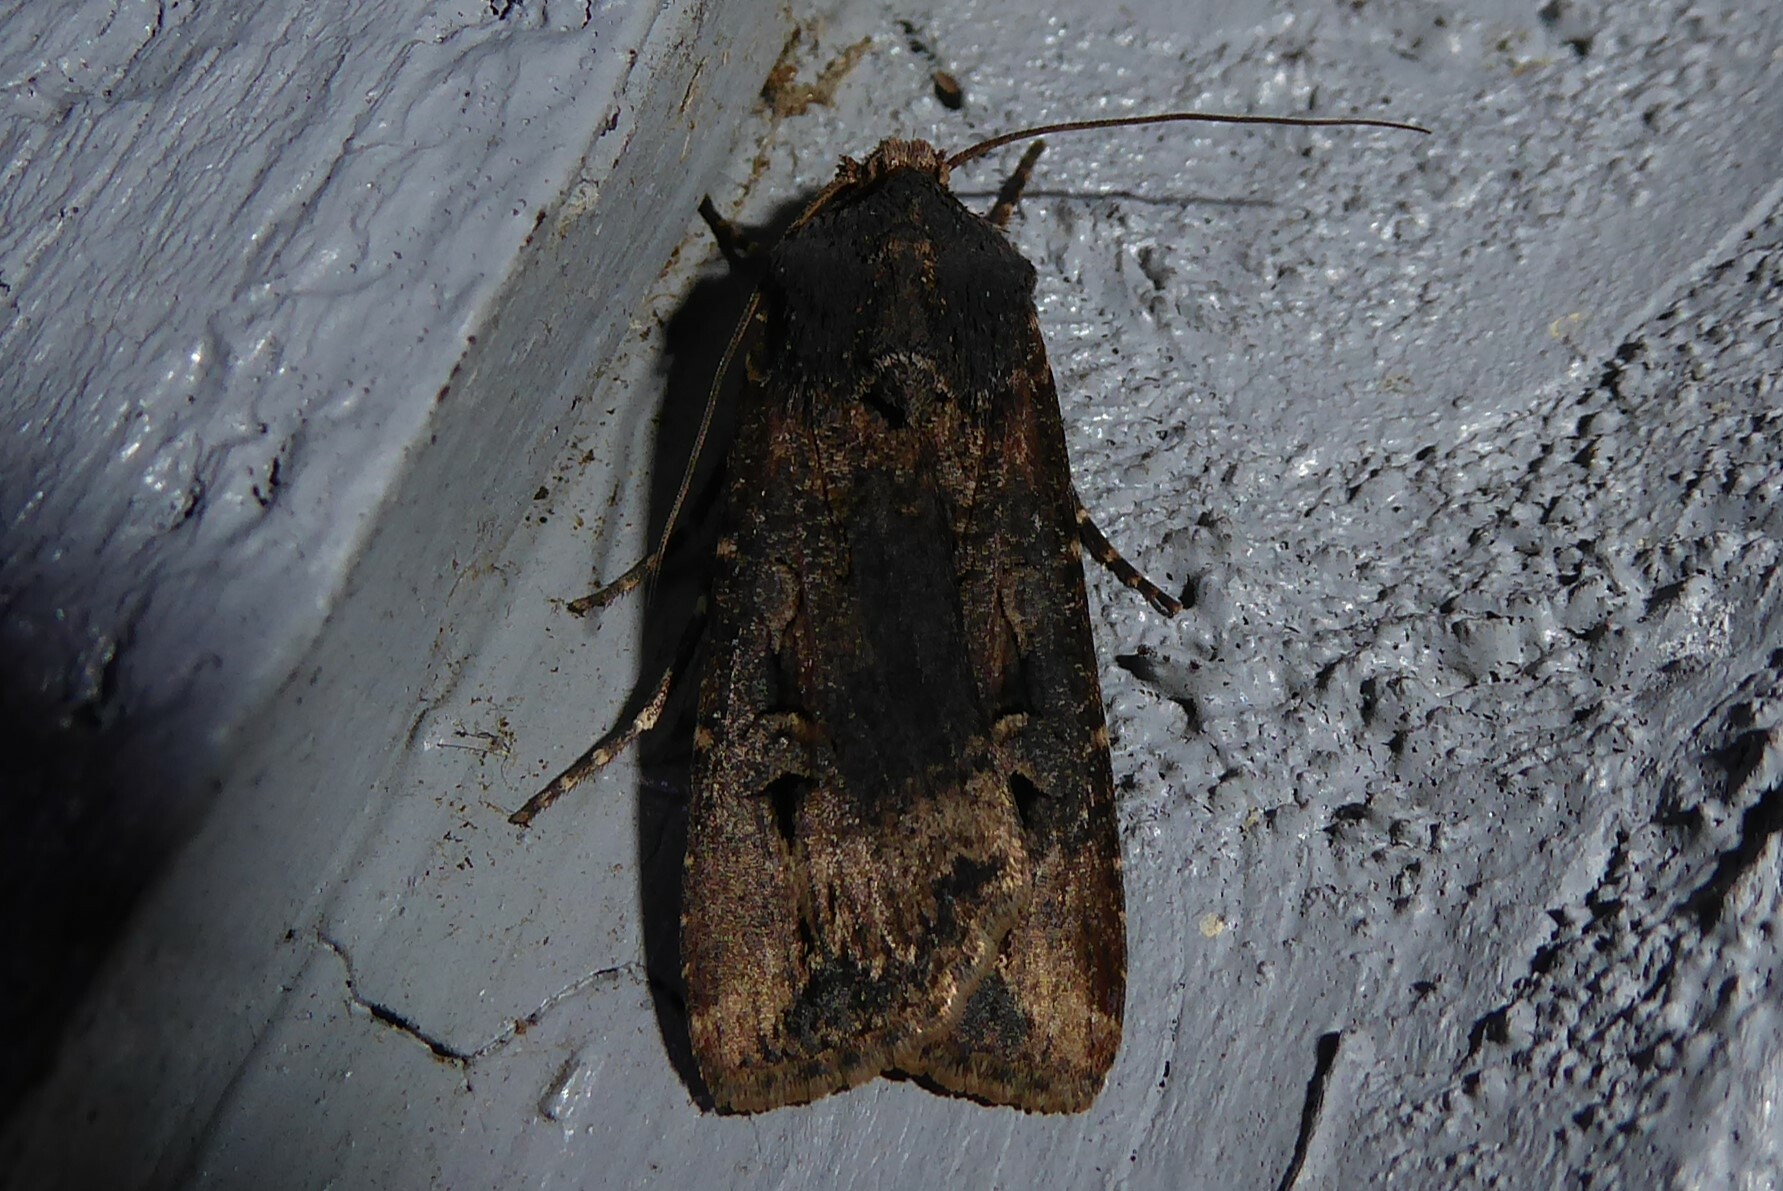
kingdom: Animalia
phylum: Arthropoda
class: Insecta
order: Lepidoptera
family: Noctuidae
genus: Agrotis
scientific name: Agrotis ipsilon
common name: Dark sword-grass
